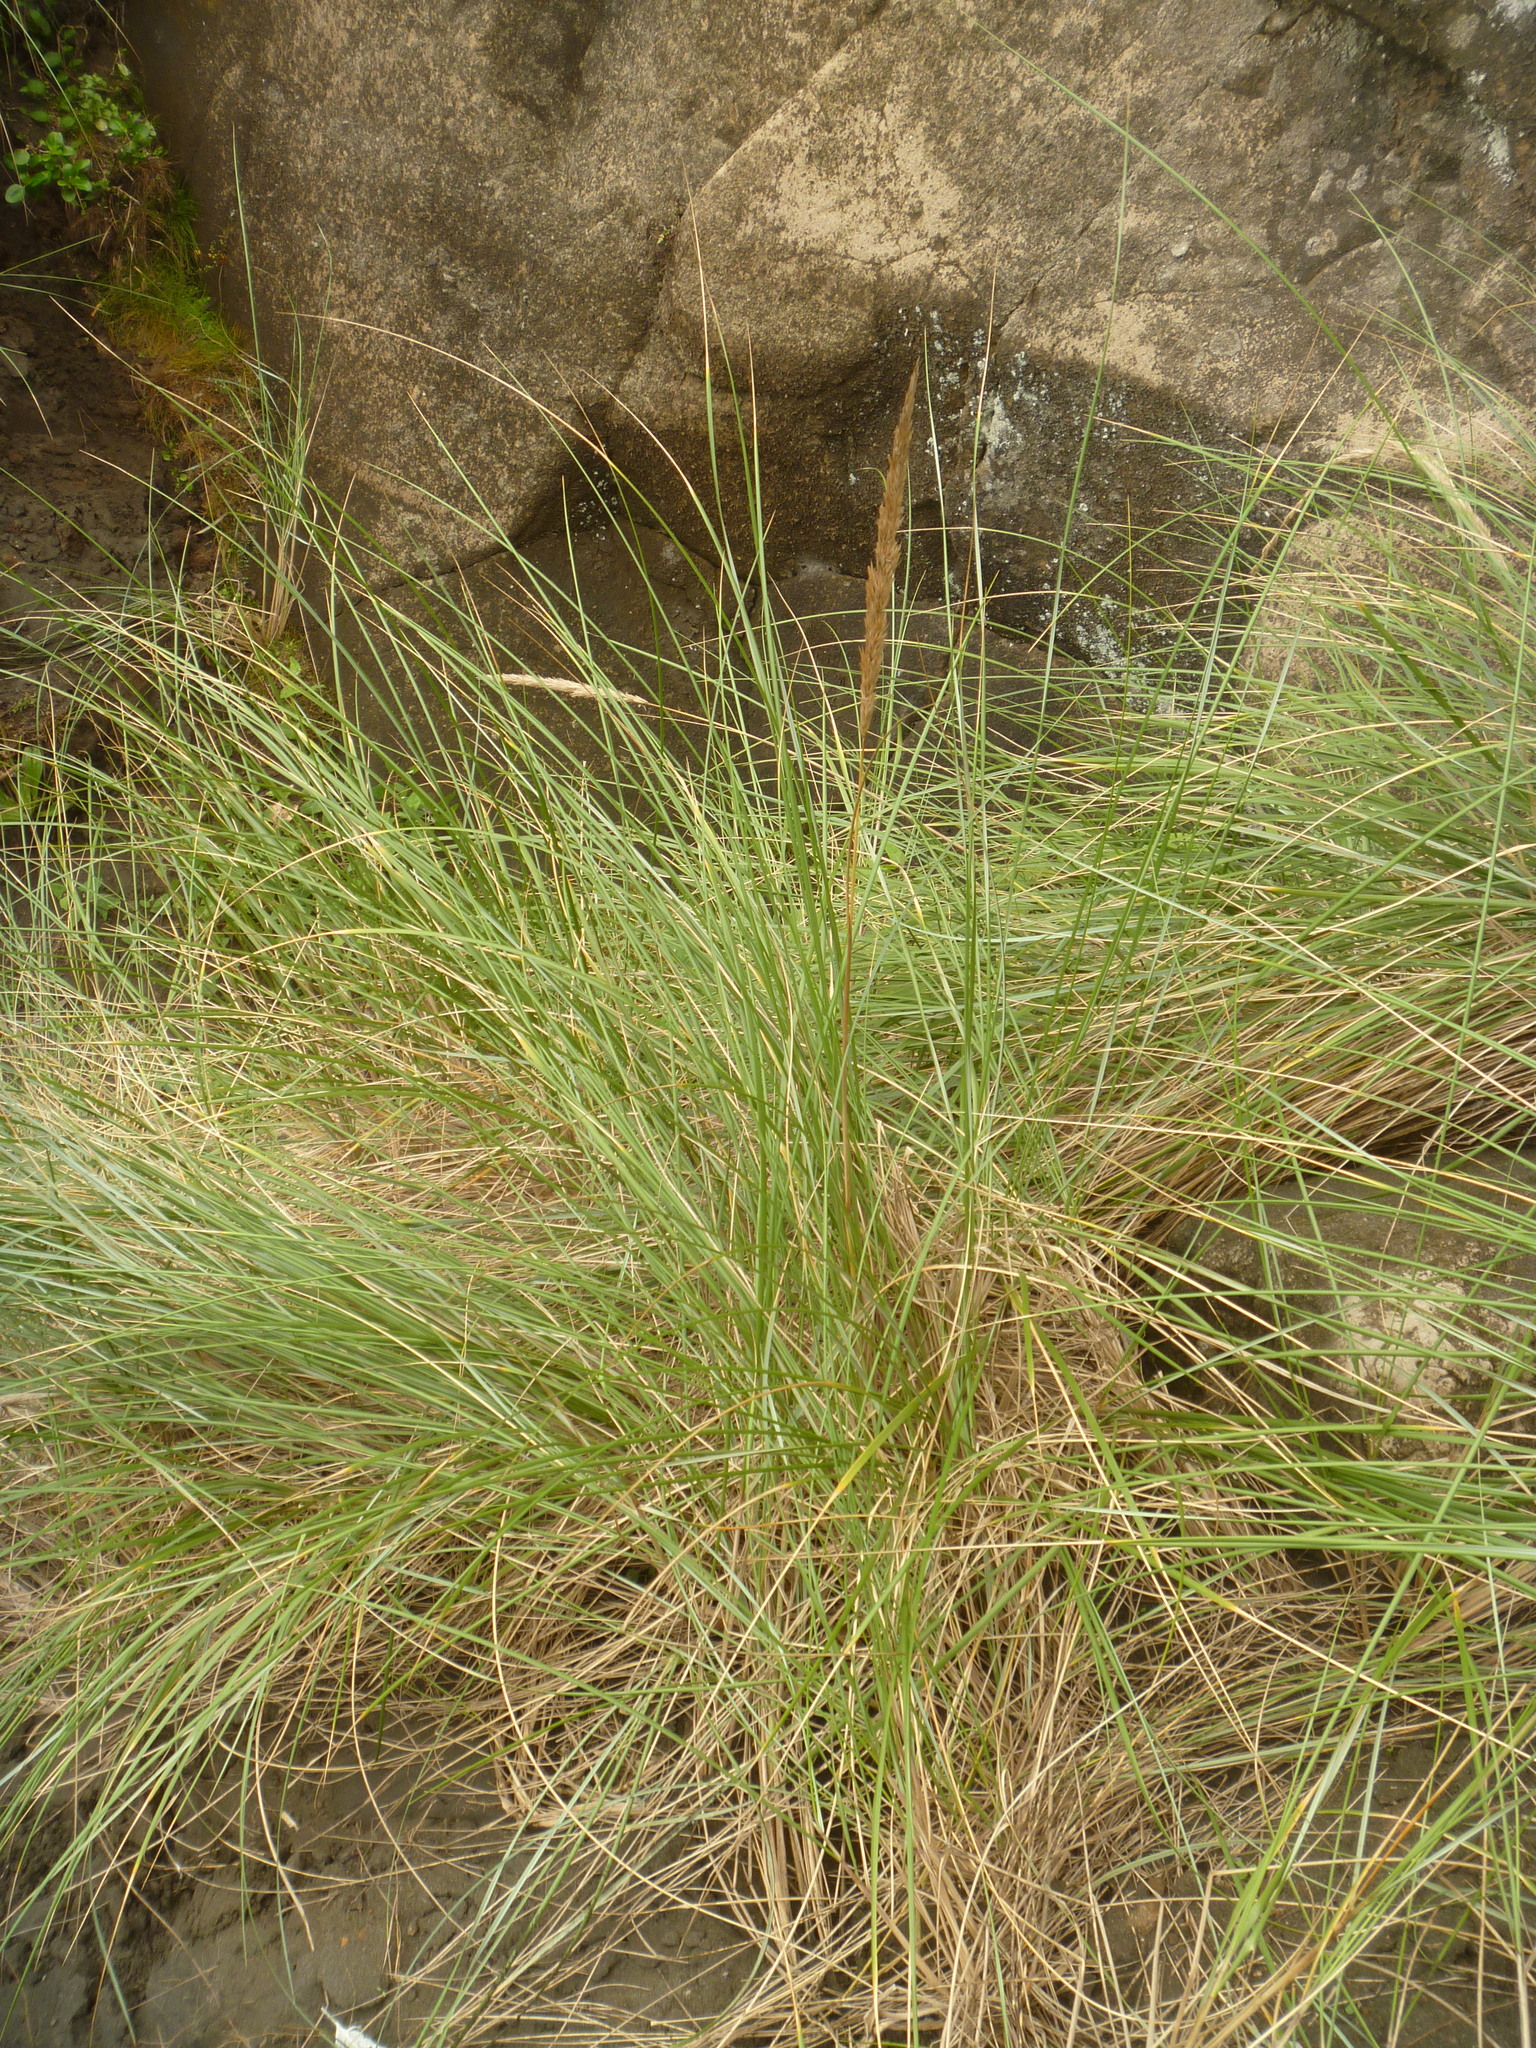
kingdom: Plantae
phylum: Tracheophyta
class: Liliopsida
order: Poales
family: Poaceae
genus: Spinifex
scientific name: Spinifex sericeus
